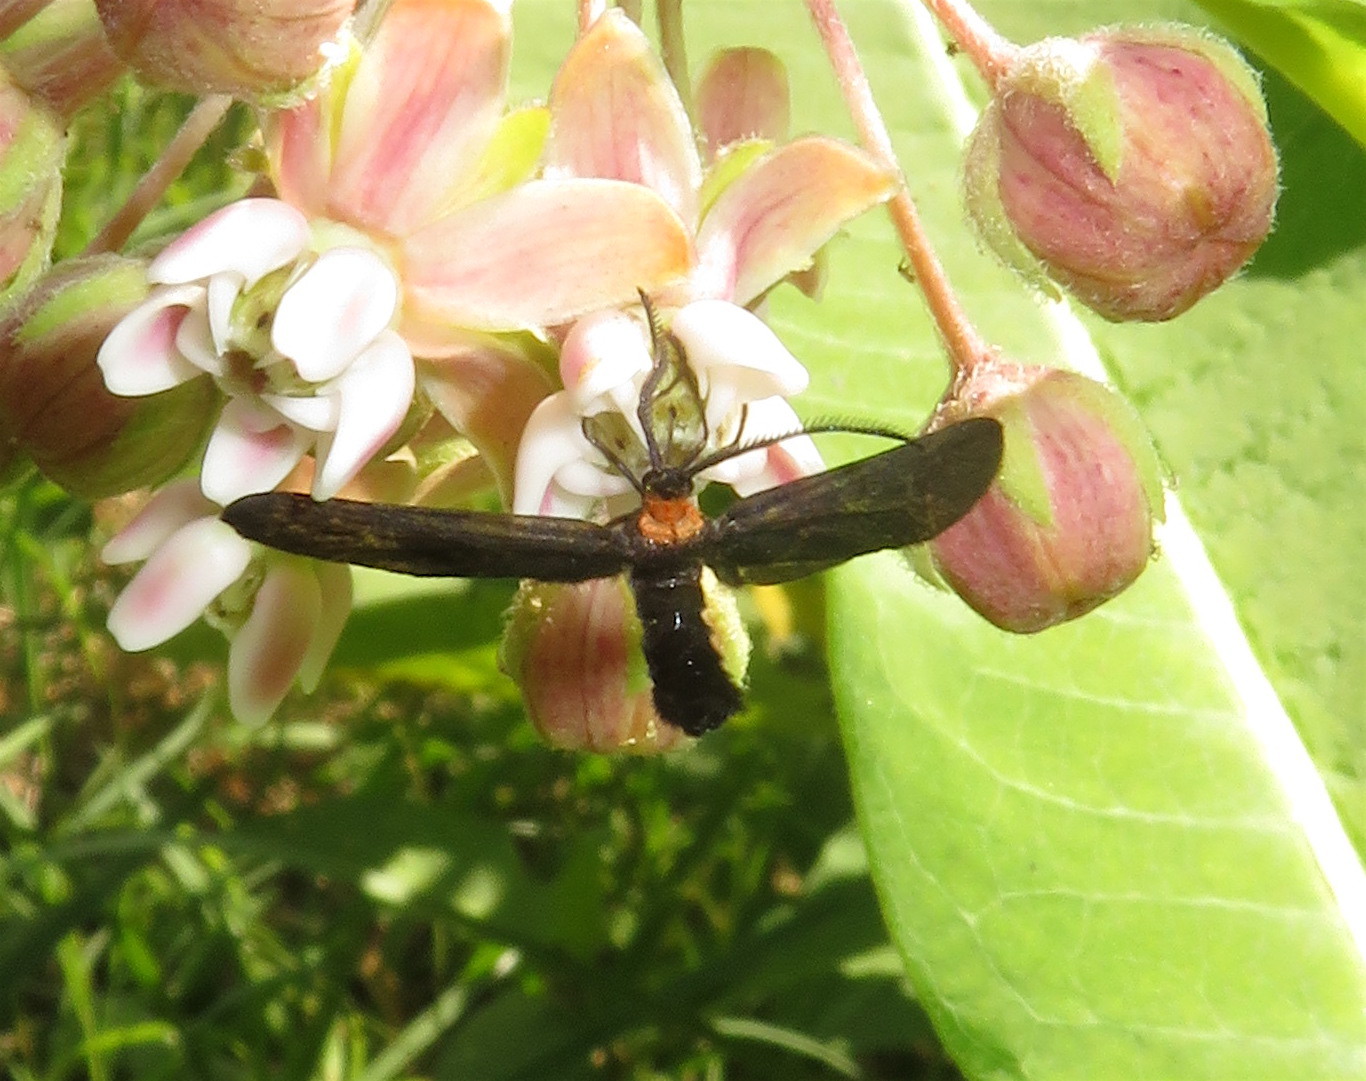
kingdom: Animalia
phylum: Arthropoda
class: Insecta
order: Lepidoptera
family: Zygaenidae
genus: Harrisina
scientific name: Harrisina americana
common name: Grapeleaf skeletonizer moth
